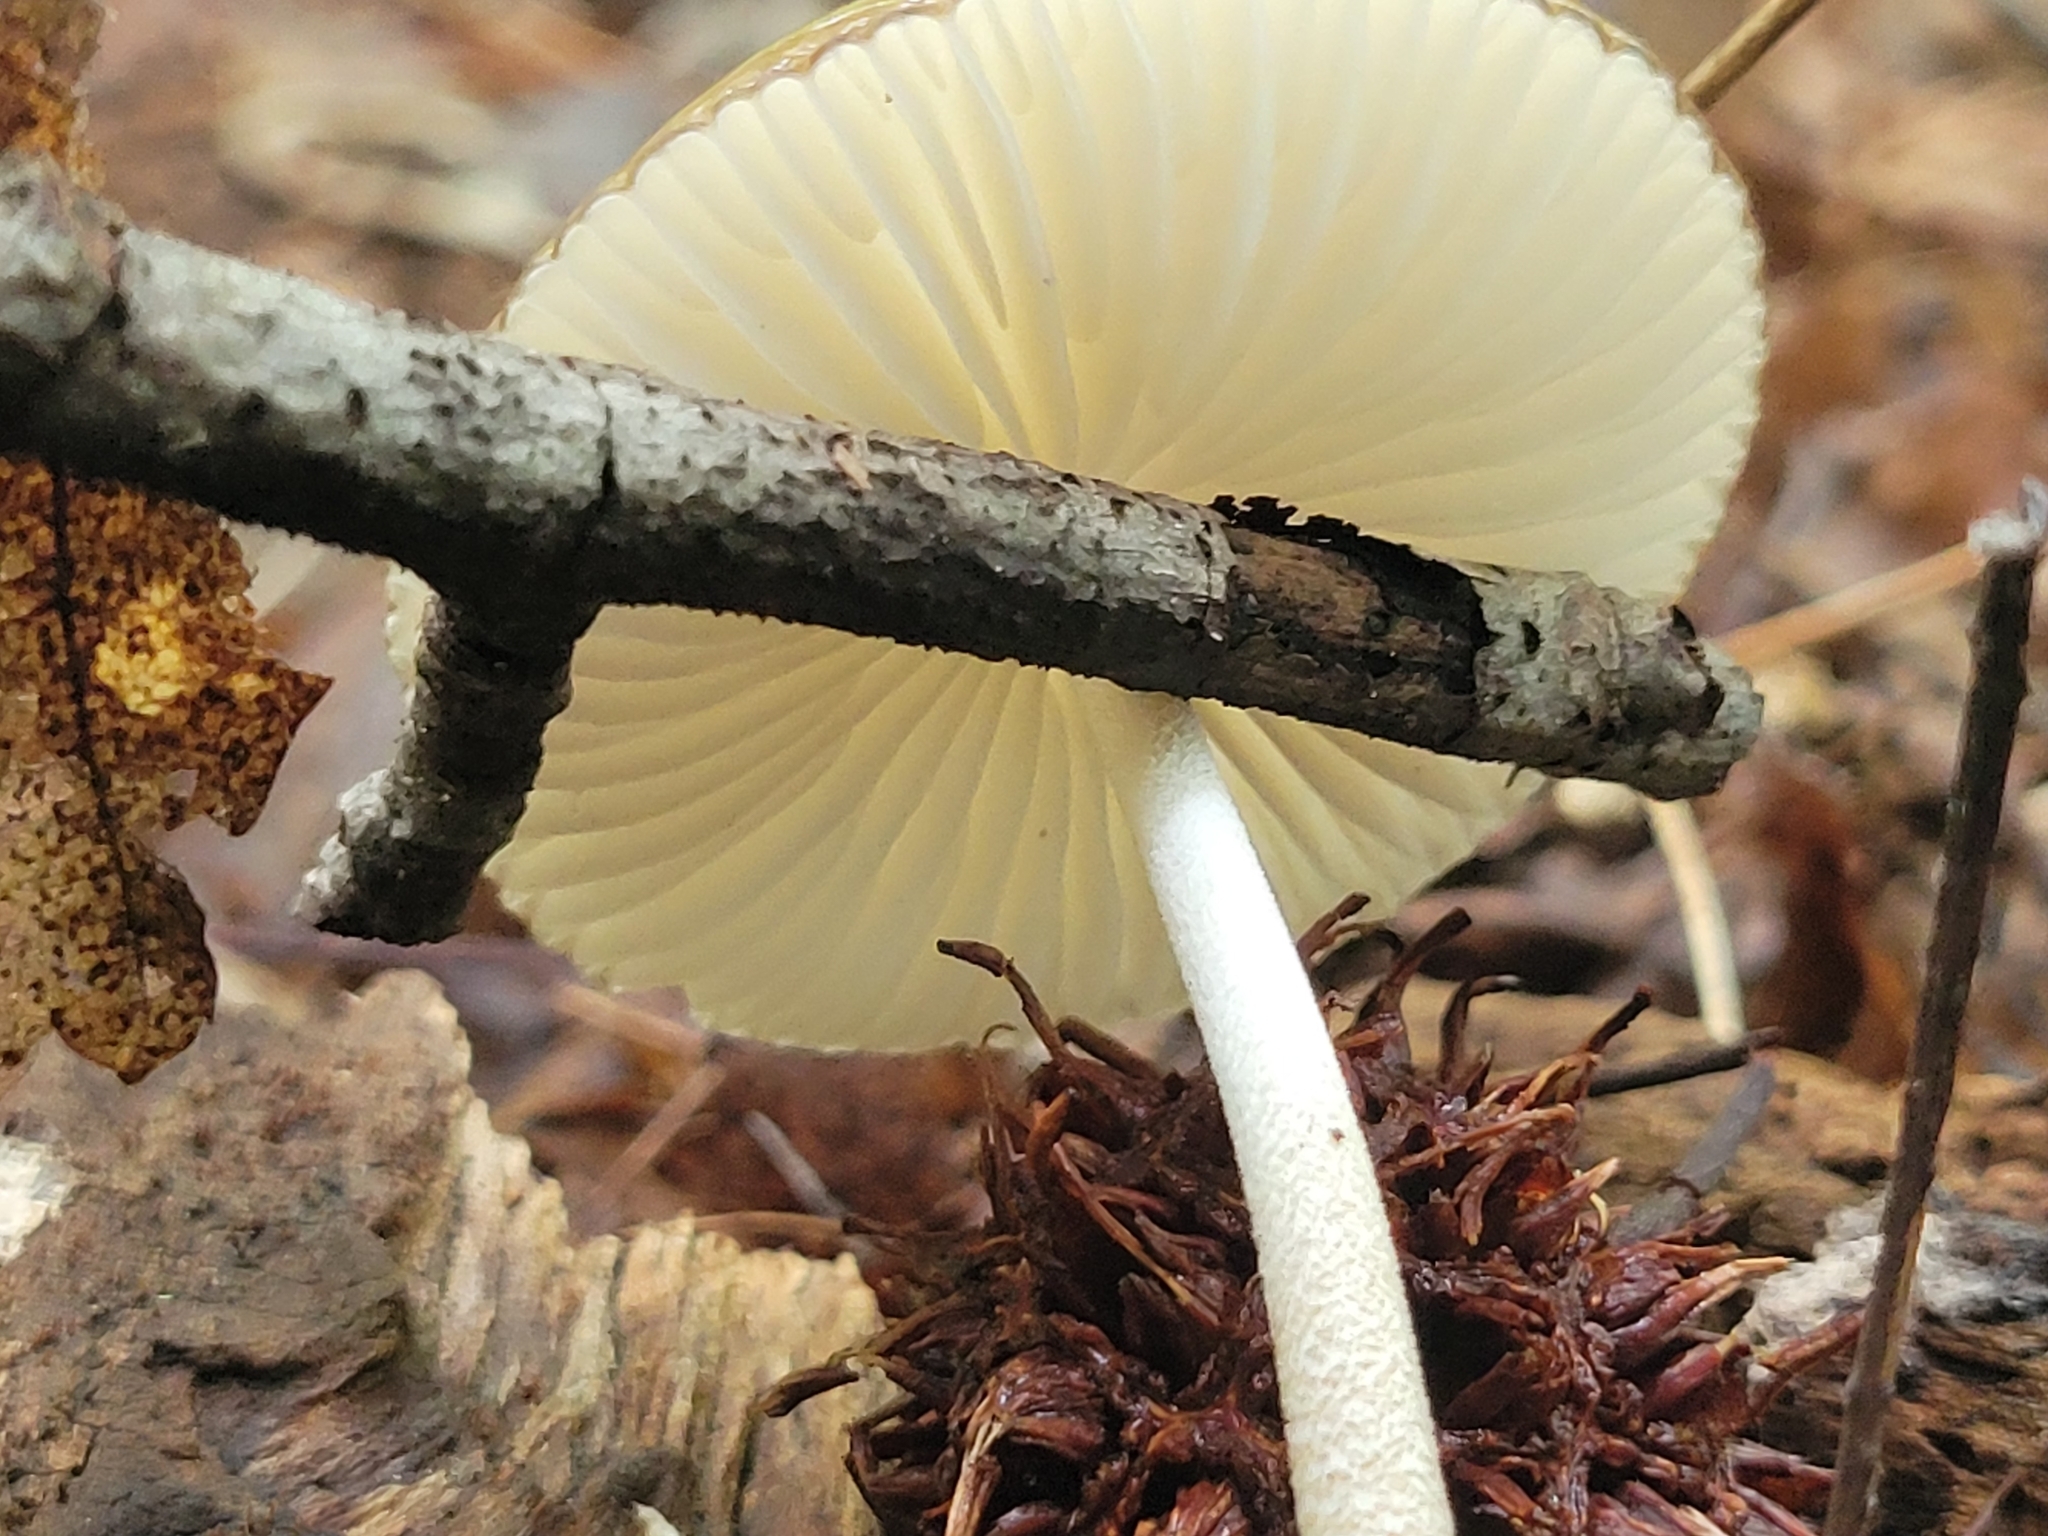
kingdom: Fungi
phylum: Basidiomycota
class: Agaricomycetes
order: Agaricales
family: Physalacriaceae
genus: Hymenopellis
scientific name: Hymenopellis furfuracea
